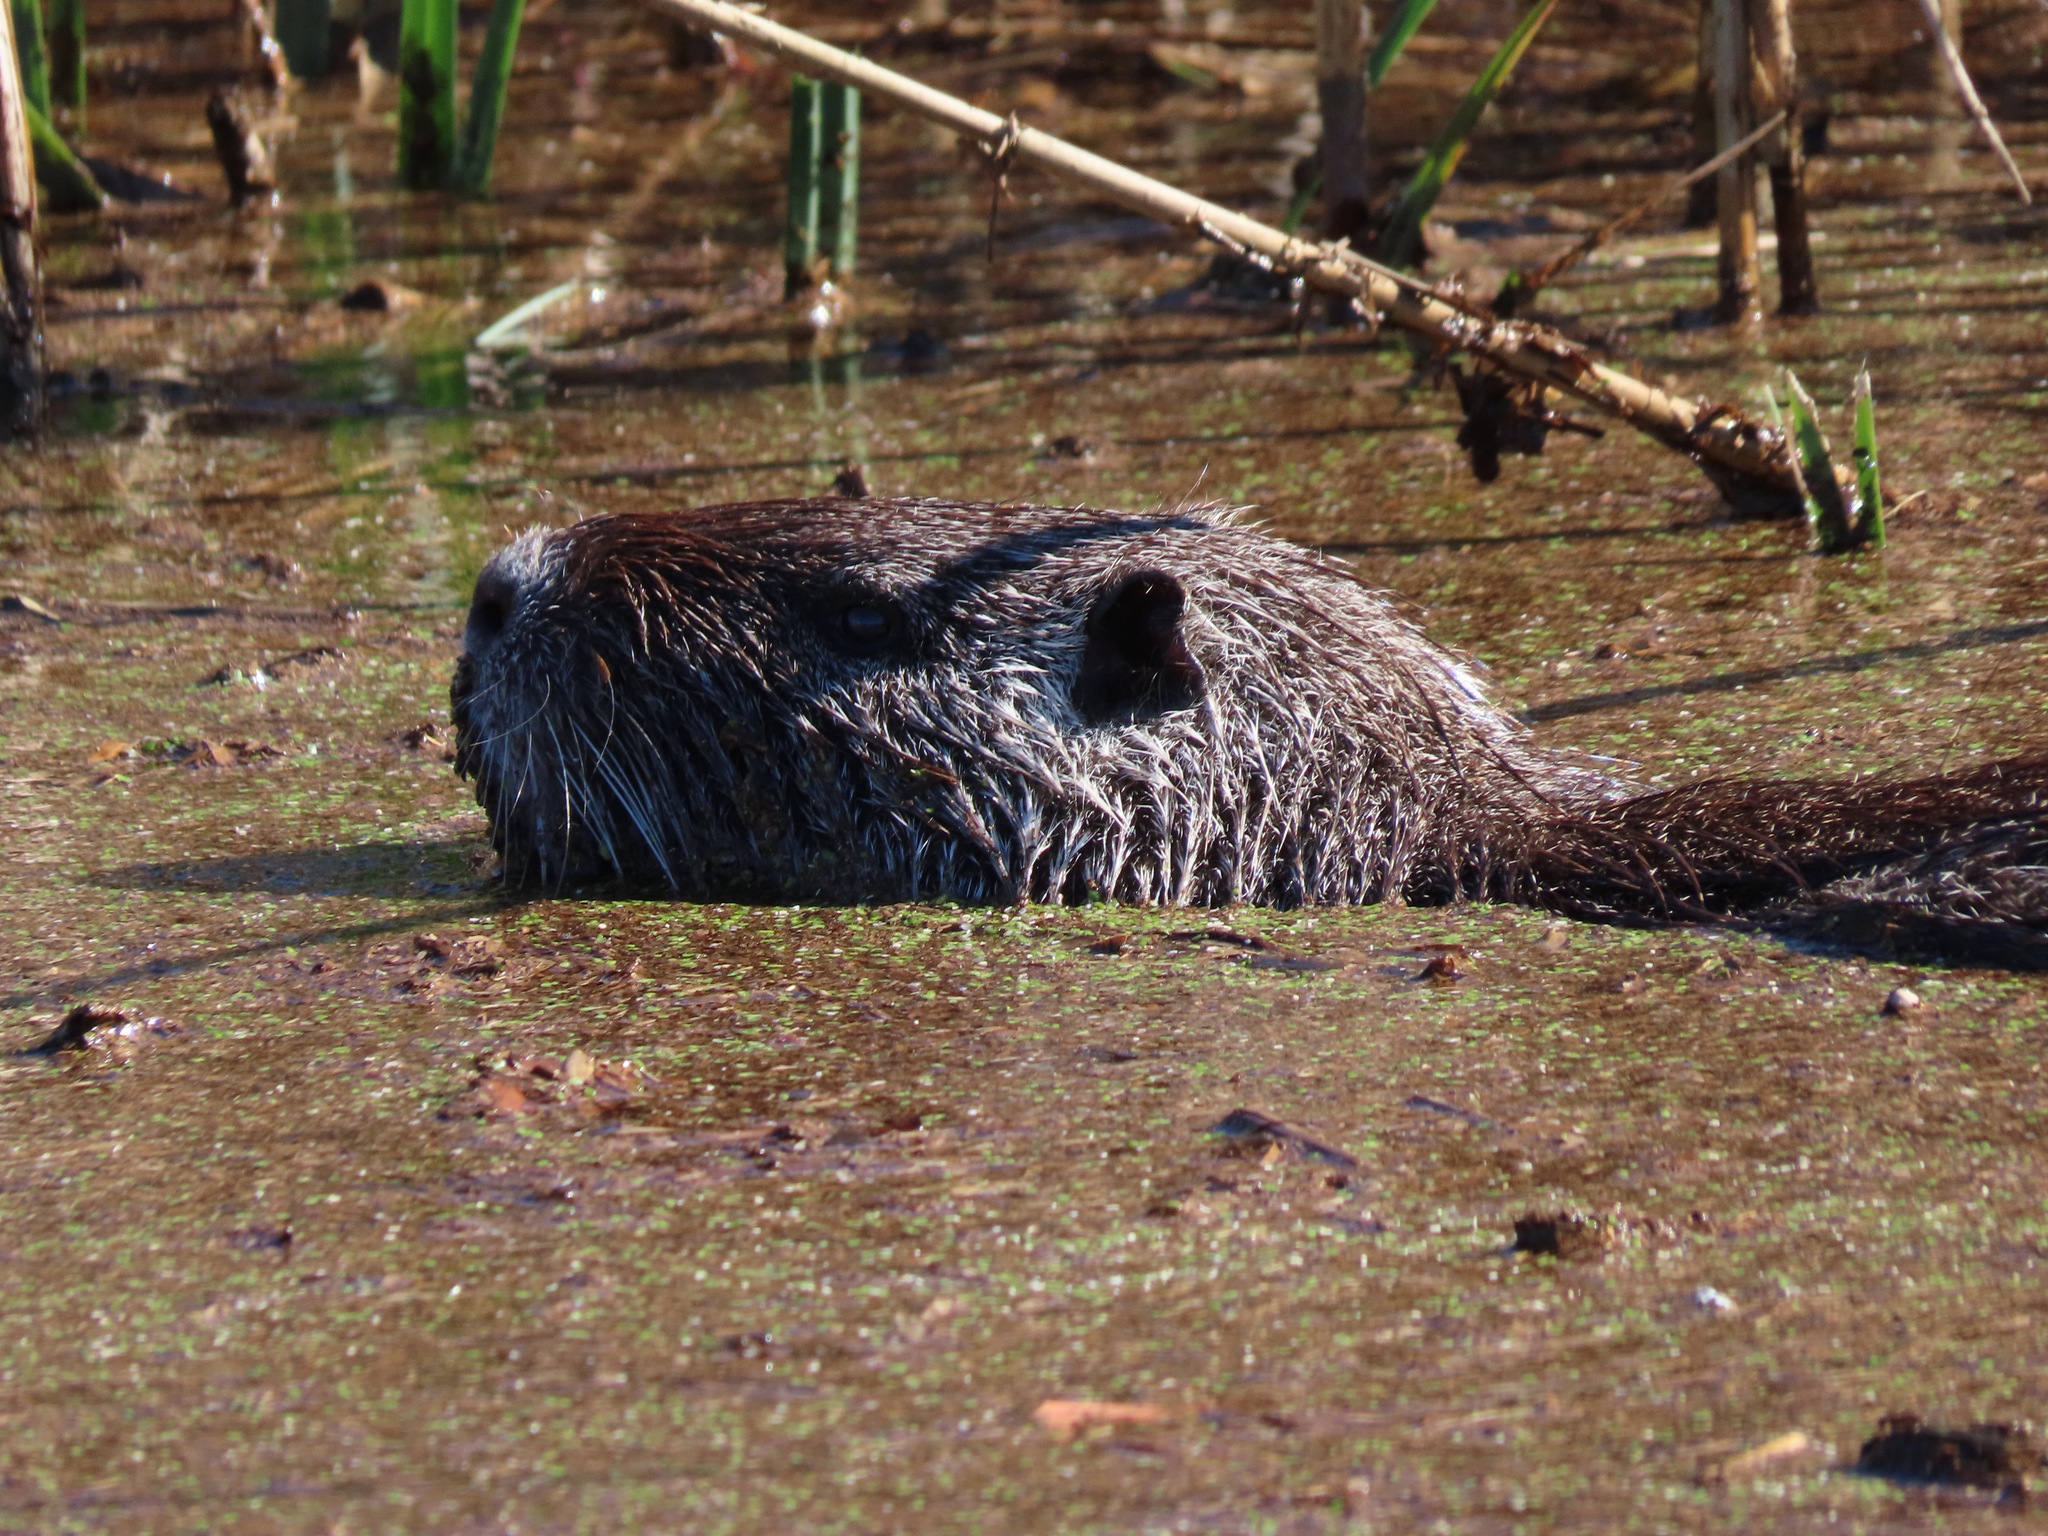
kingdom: Animalia
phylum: Chordata
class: Mammalia
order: Rodentia
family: Myocastoridae
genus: Myocastor
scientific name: Myocastor coypus
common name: Coypu
